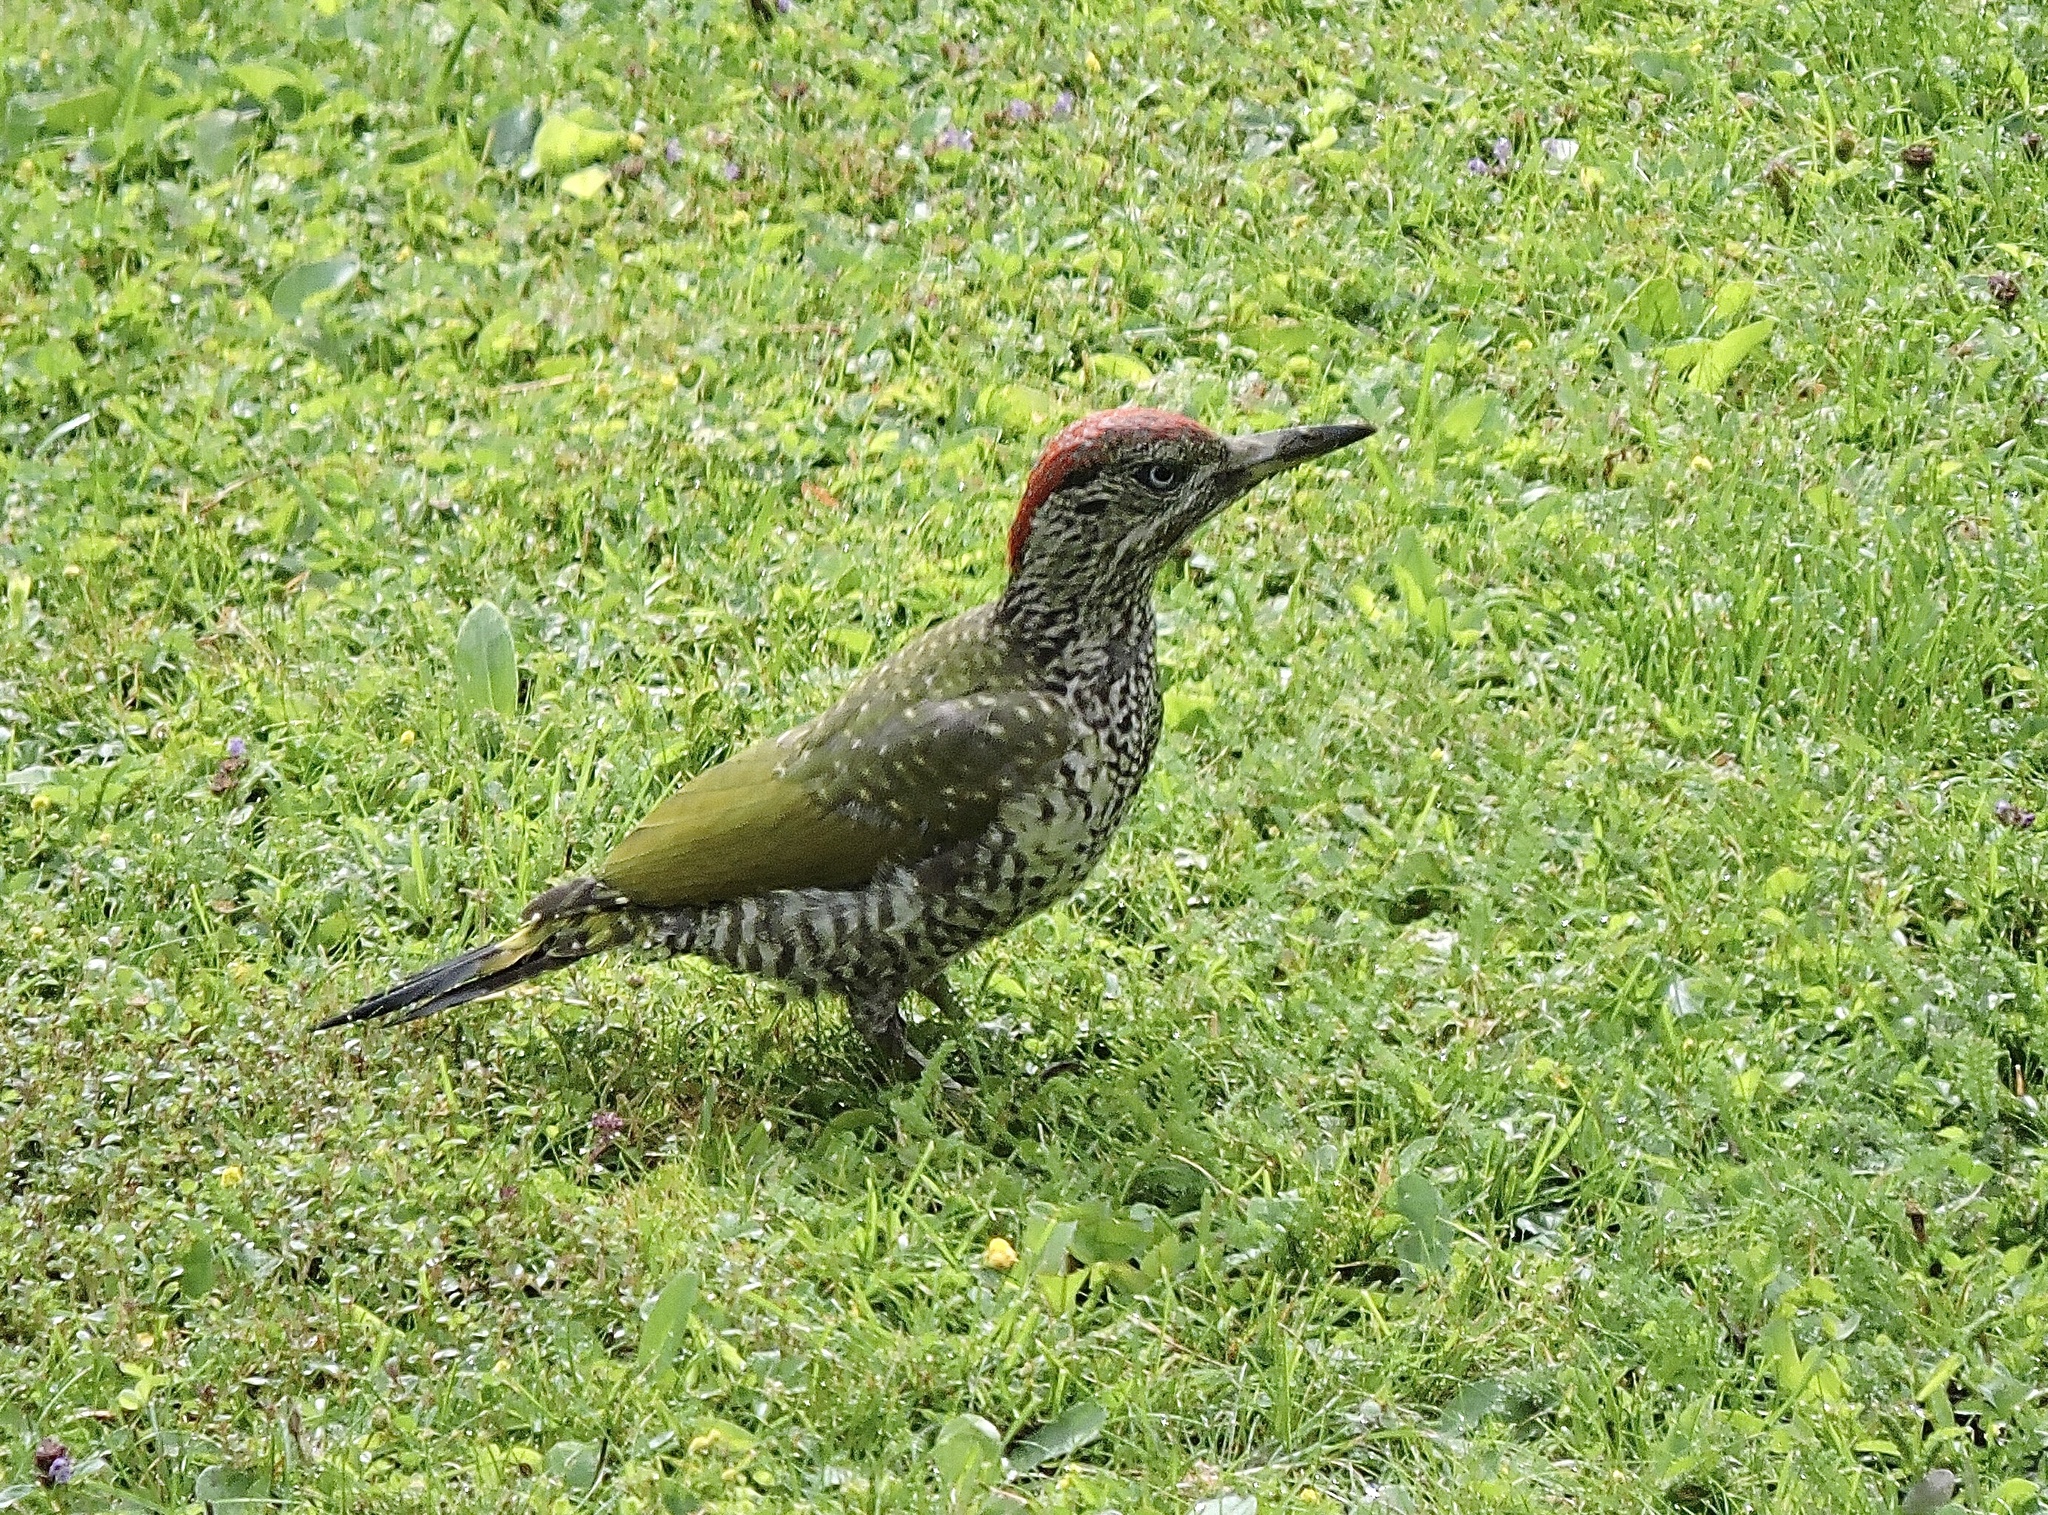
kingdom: Animalia
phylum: Chordata
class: Aves
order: Piciformes
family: Picidae
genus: Picus
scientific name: Picus viridis
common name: European green woodpecker
